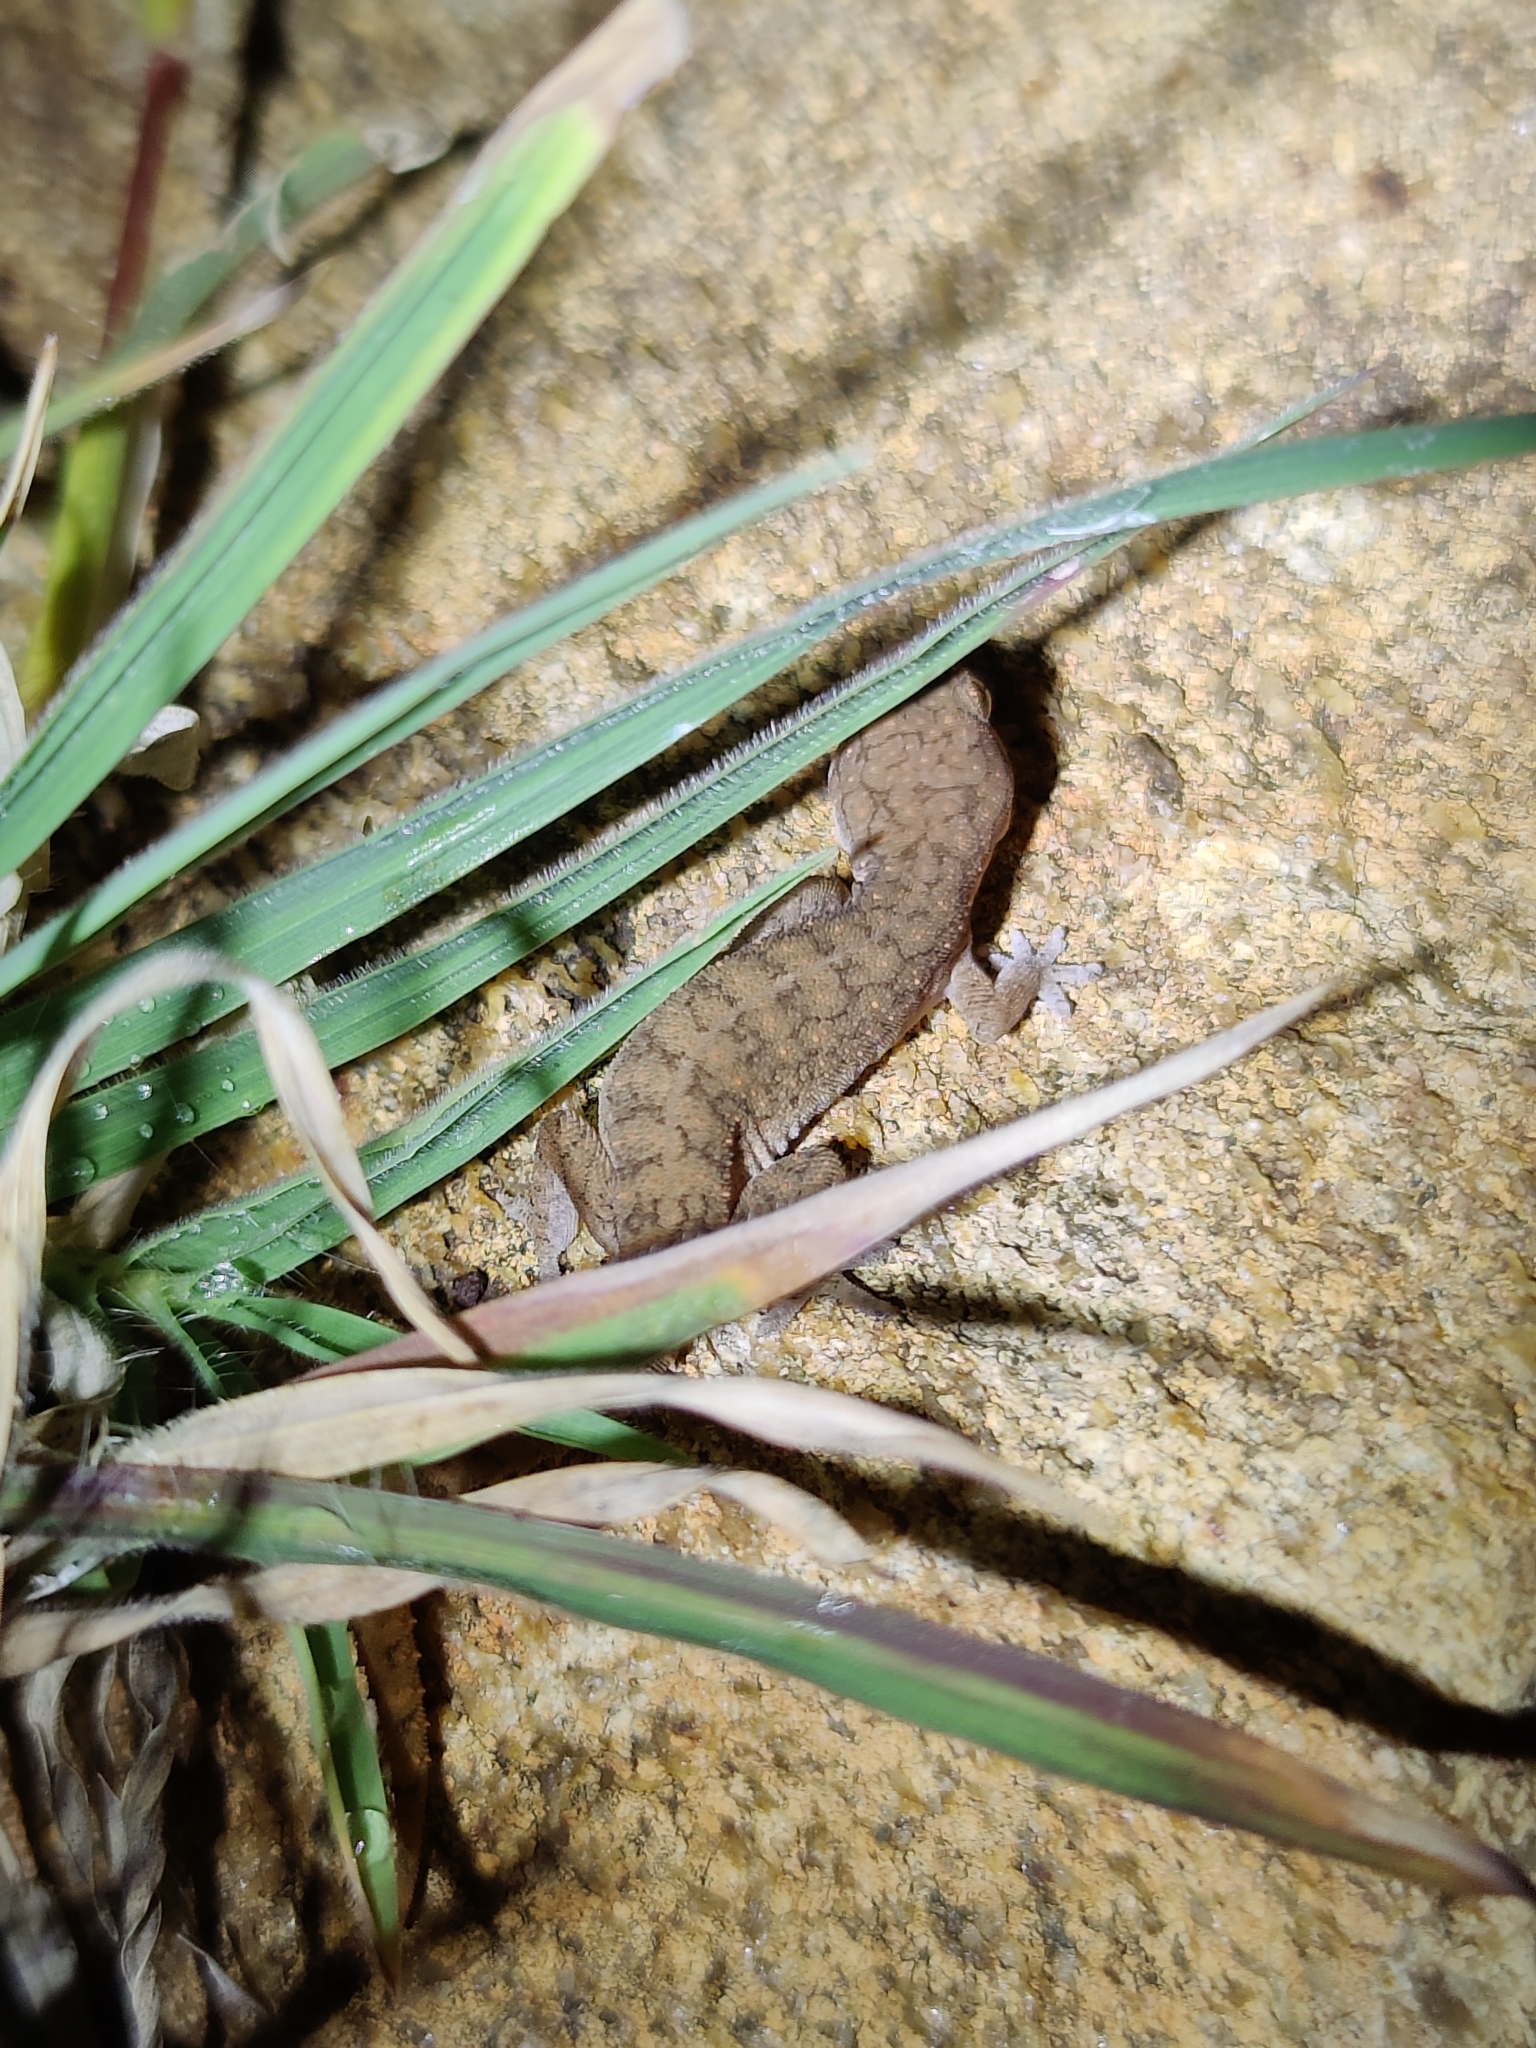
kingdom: Animalia
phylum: Chordata
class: Squamata
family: Gekkonidae
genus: Hemidactylus
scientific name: Hemidactylus reticulatus
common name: Reticulate leaf-toed gecko
